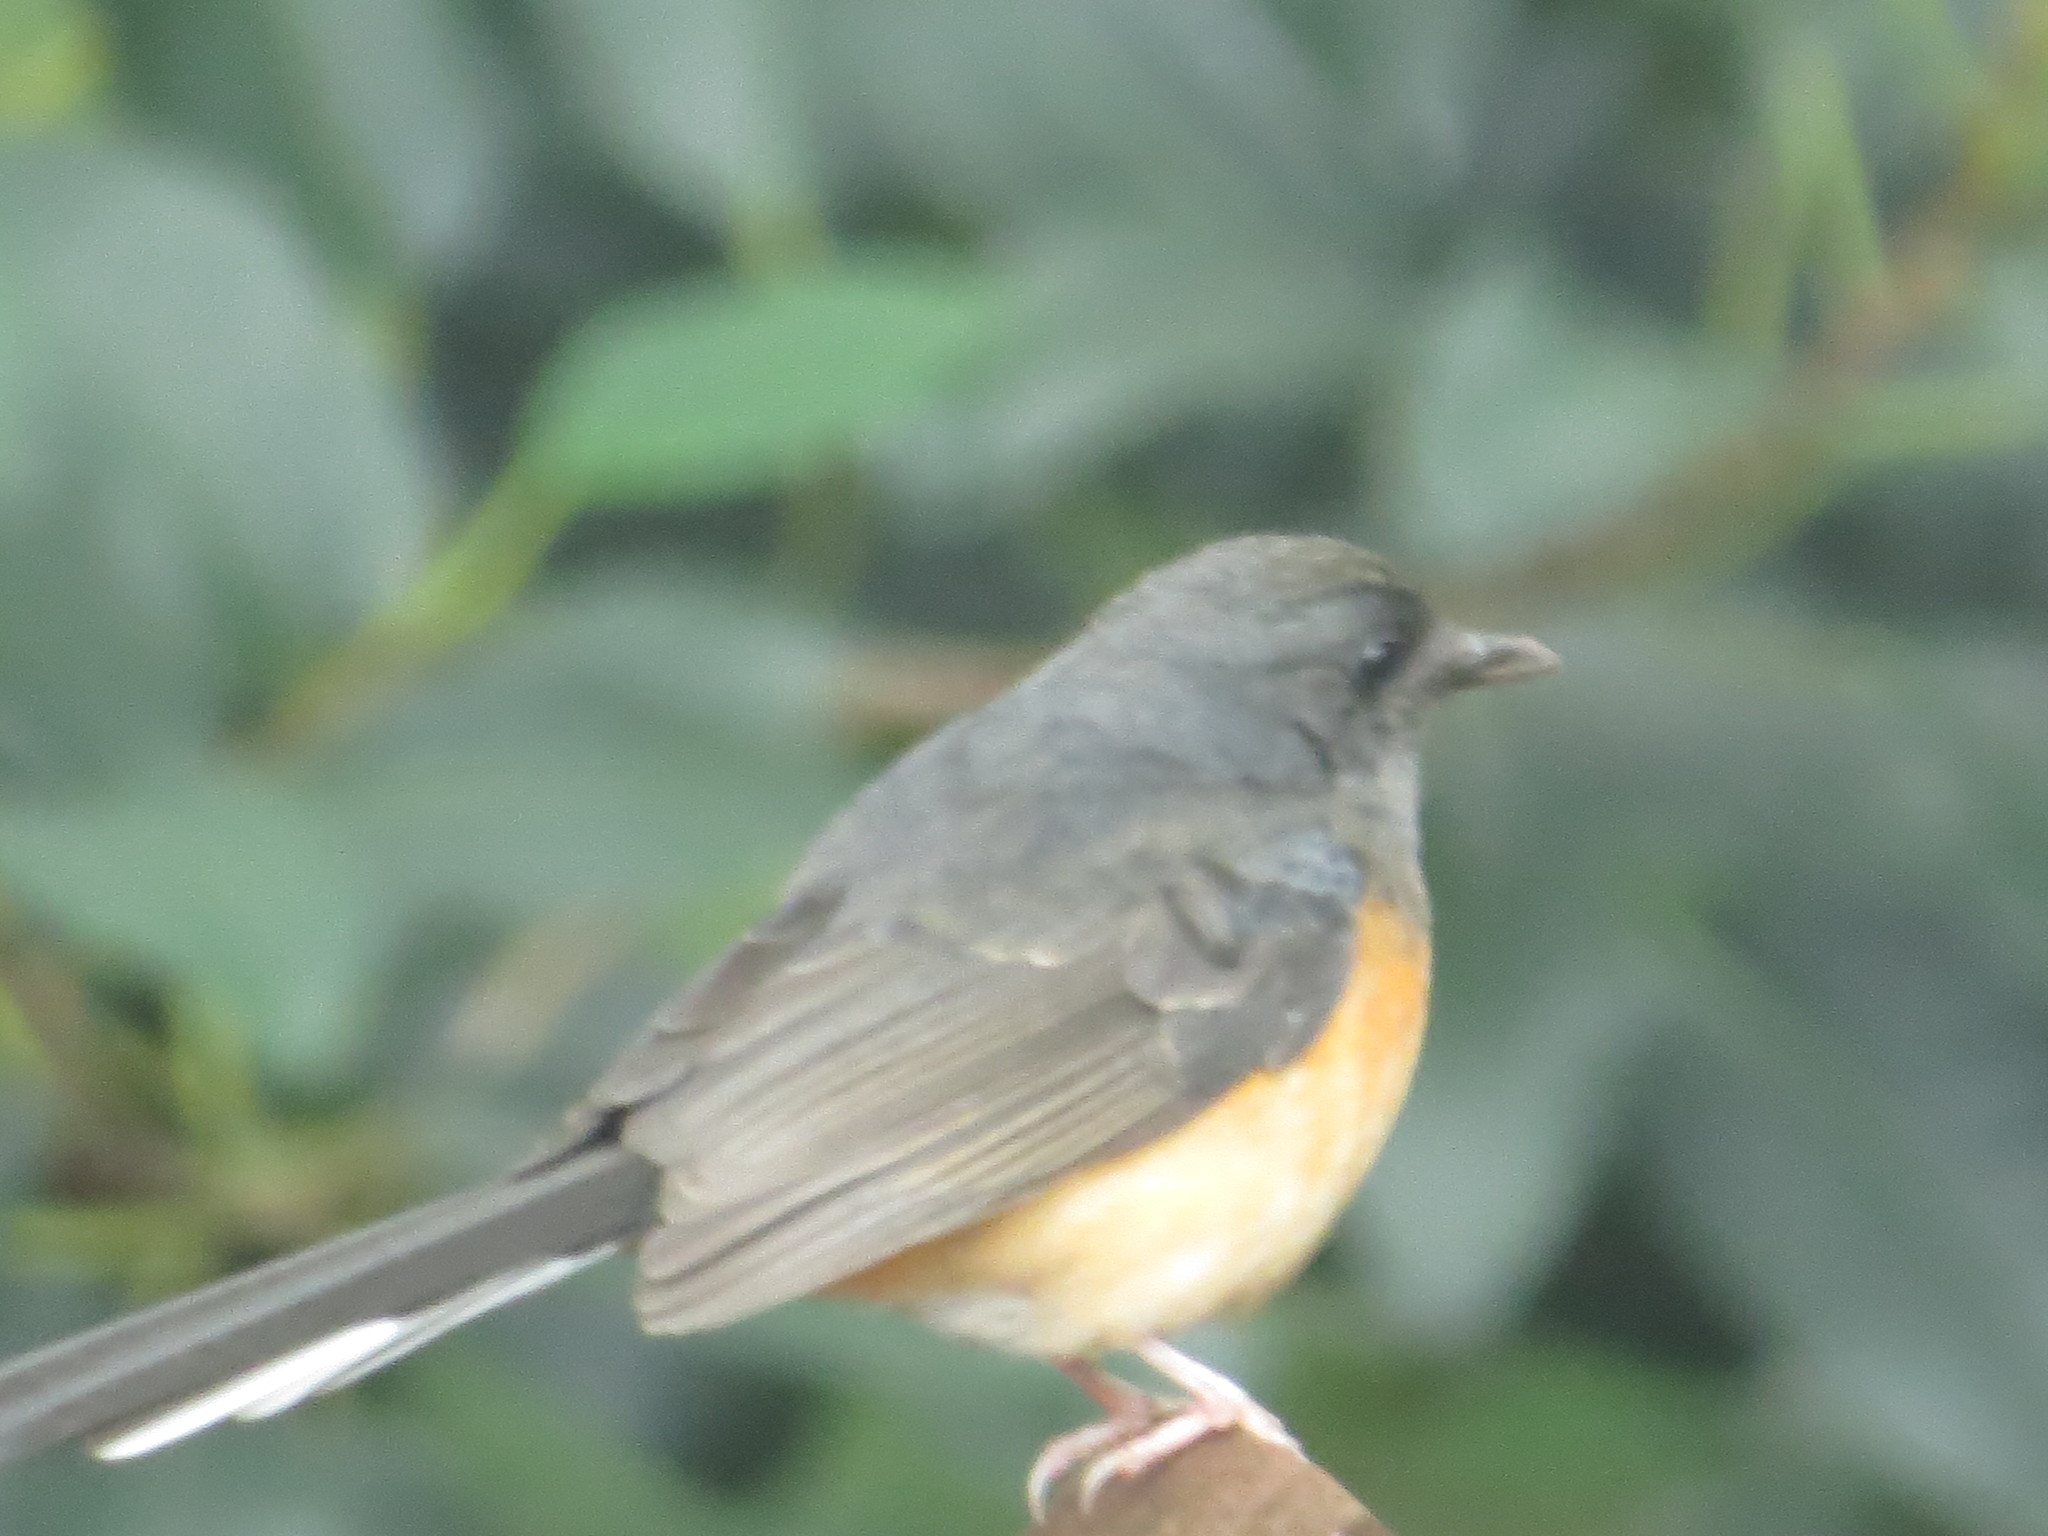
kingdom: Animalia
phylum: Chordata
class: Aves
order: Passeriformes
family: Muscicapidae
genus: Copsychus
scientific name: Copsychus malabaricus
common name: White-rumped shama
